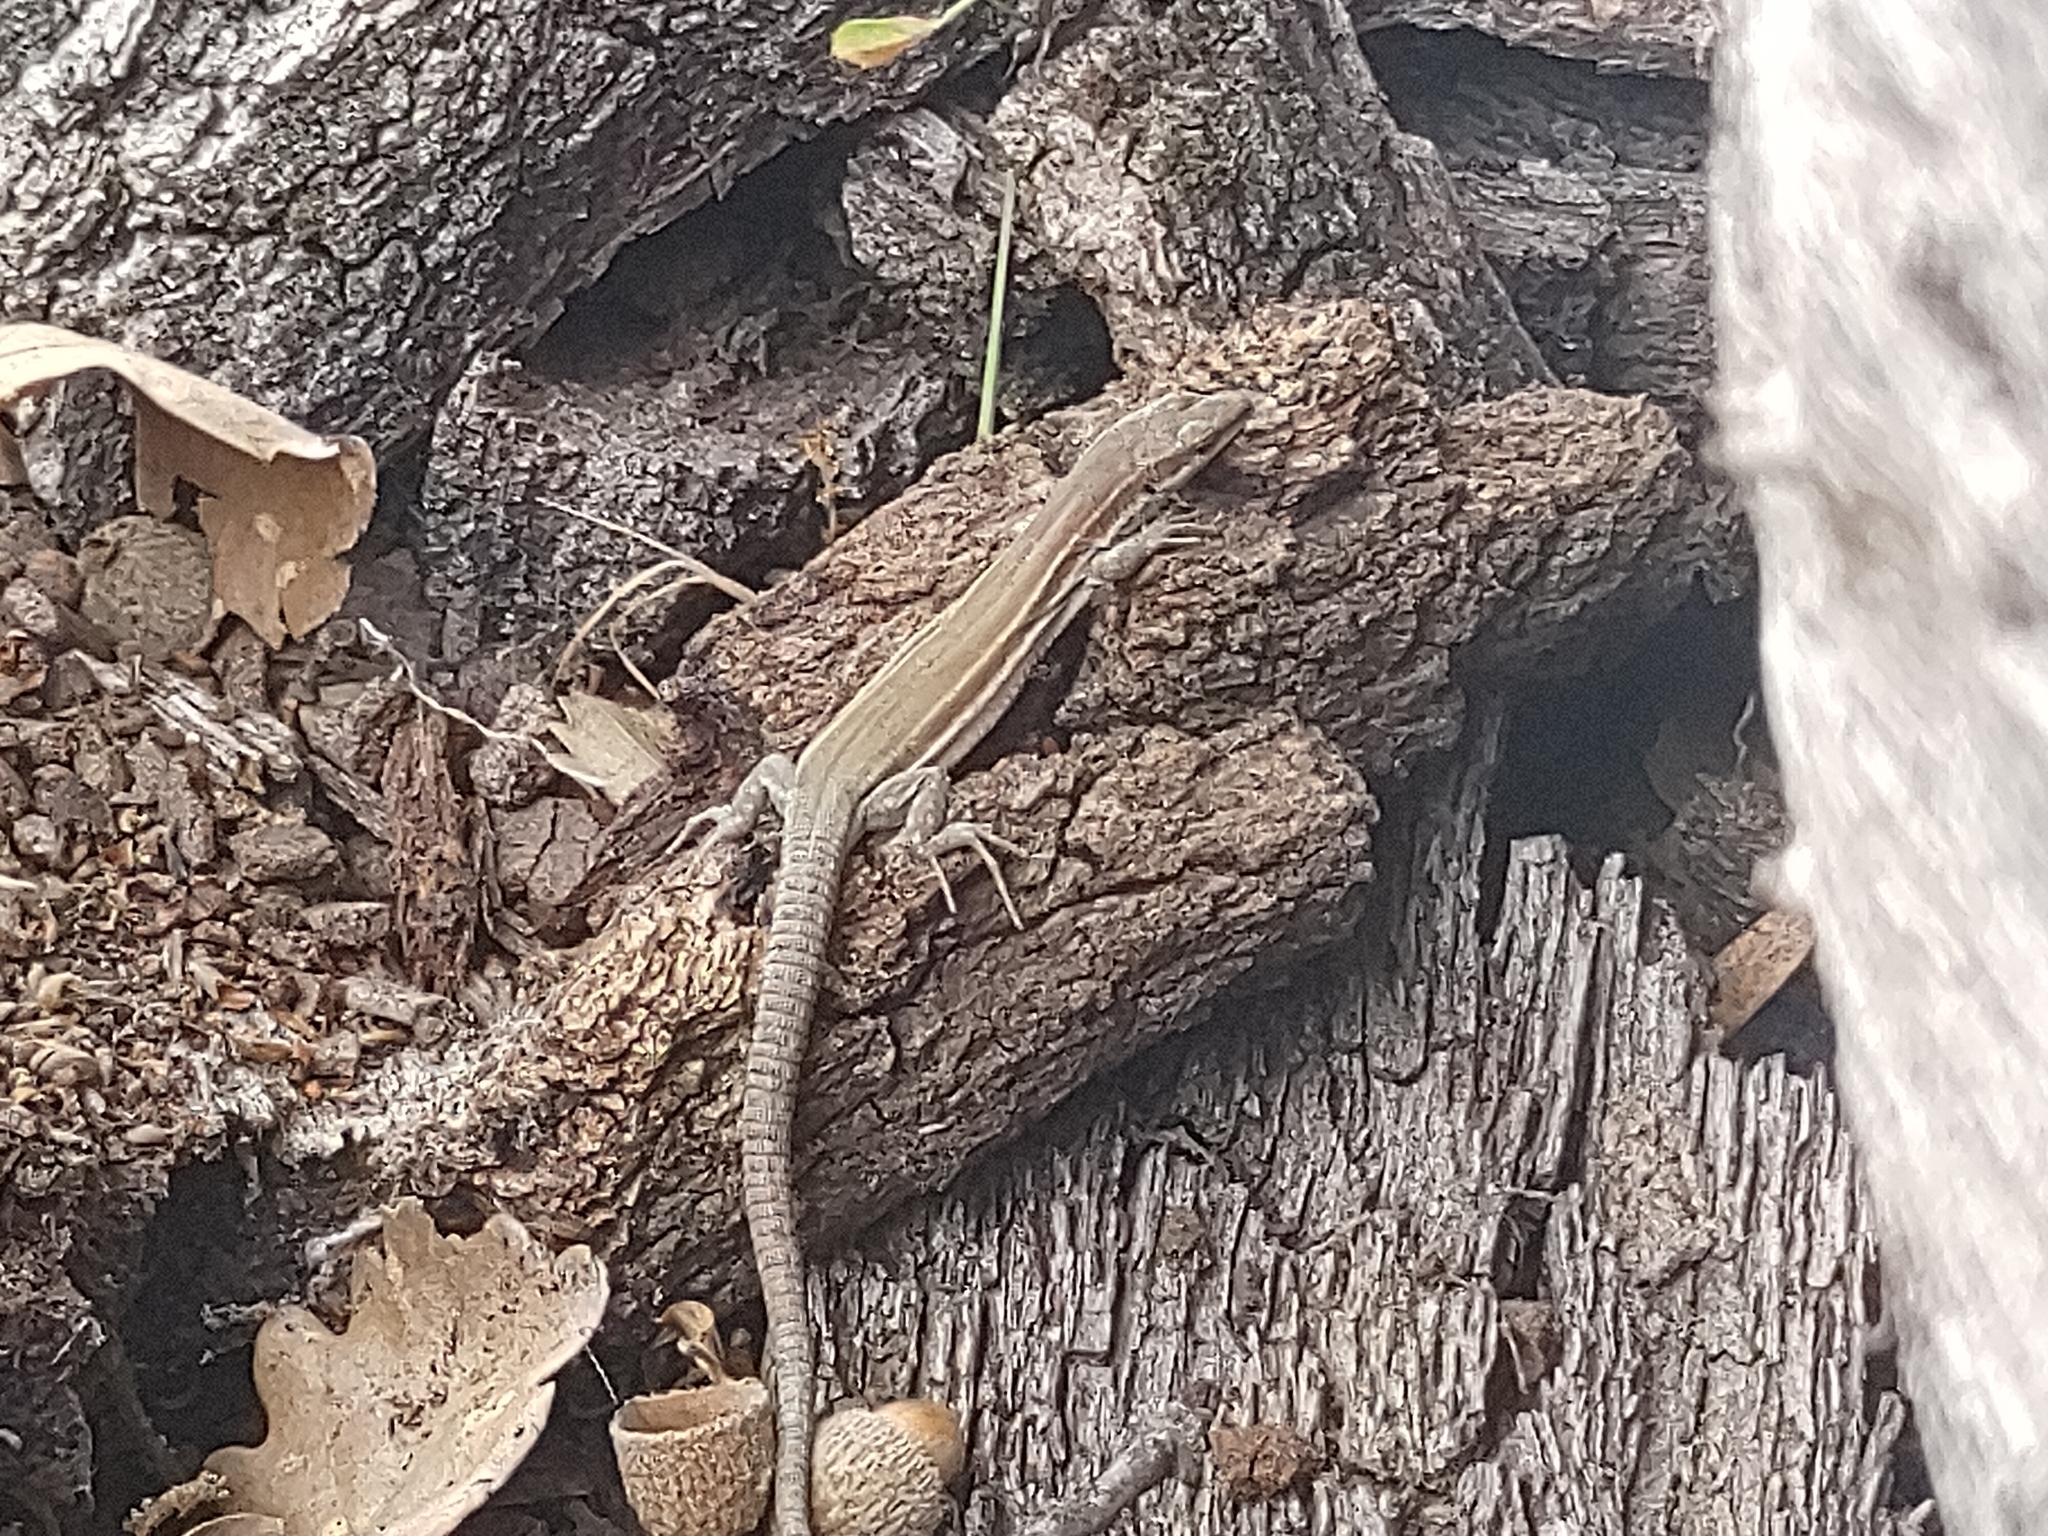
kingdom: Animalia
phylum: Chordata
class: Squamata
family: Lacertidae
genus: Podarcis
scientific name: Podarcis muralis
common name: Common wall lizard
